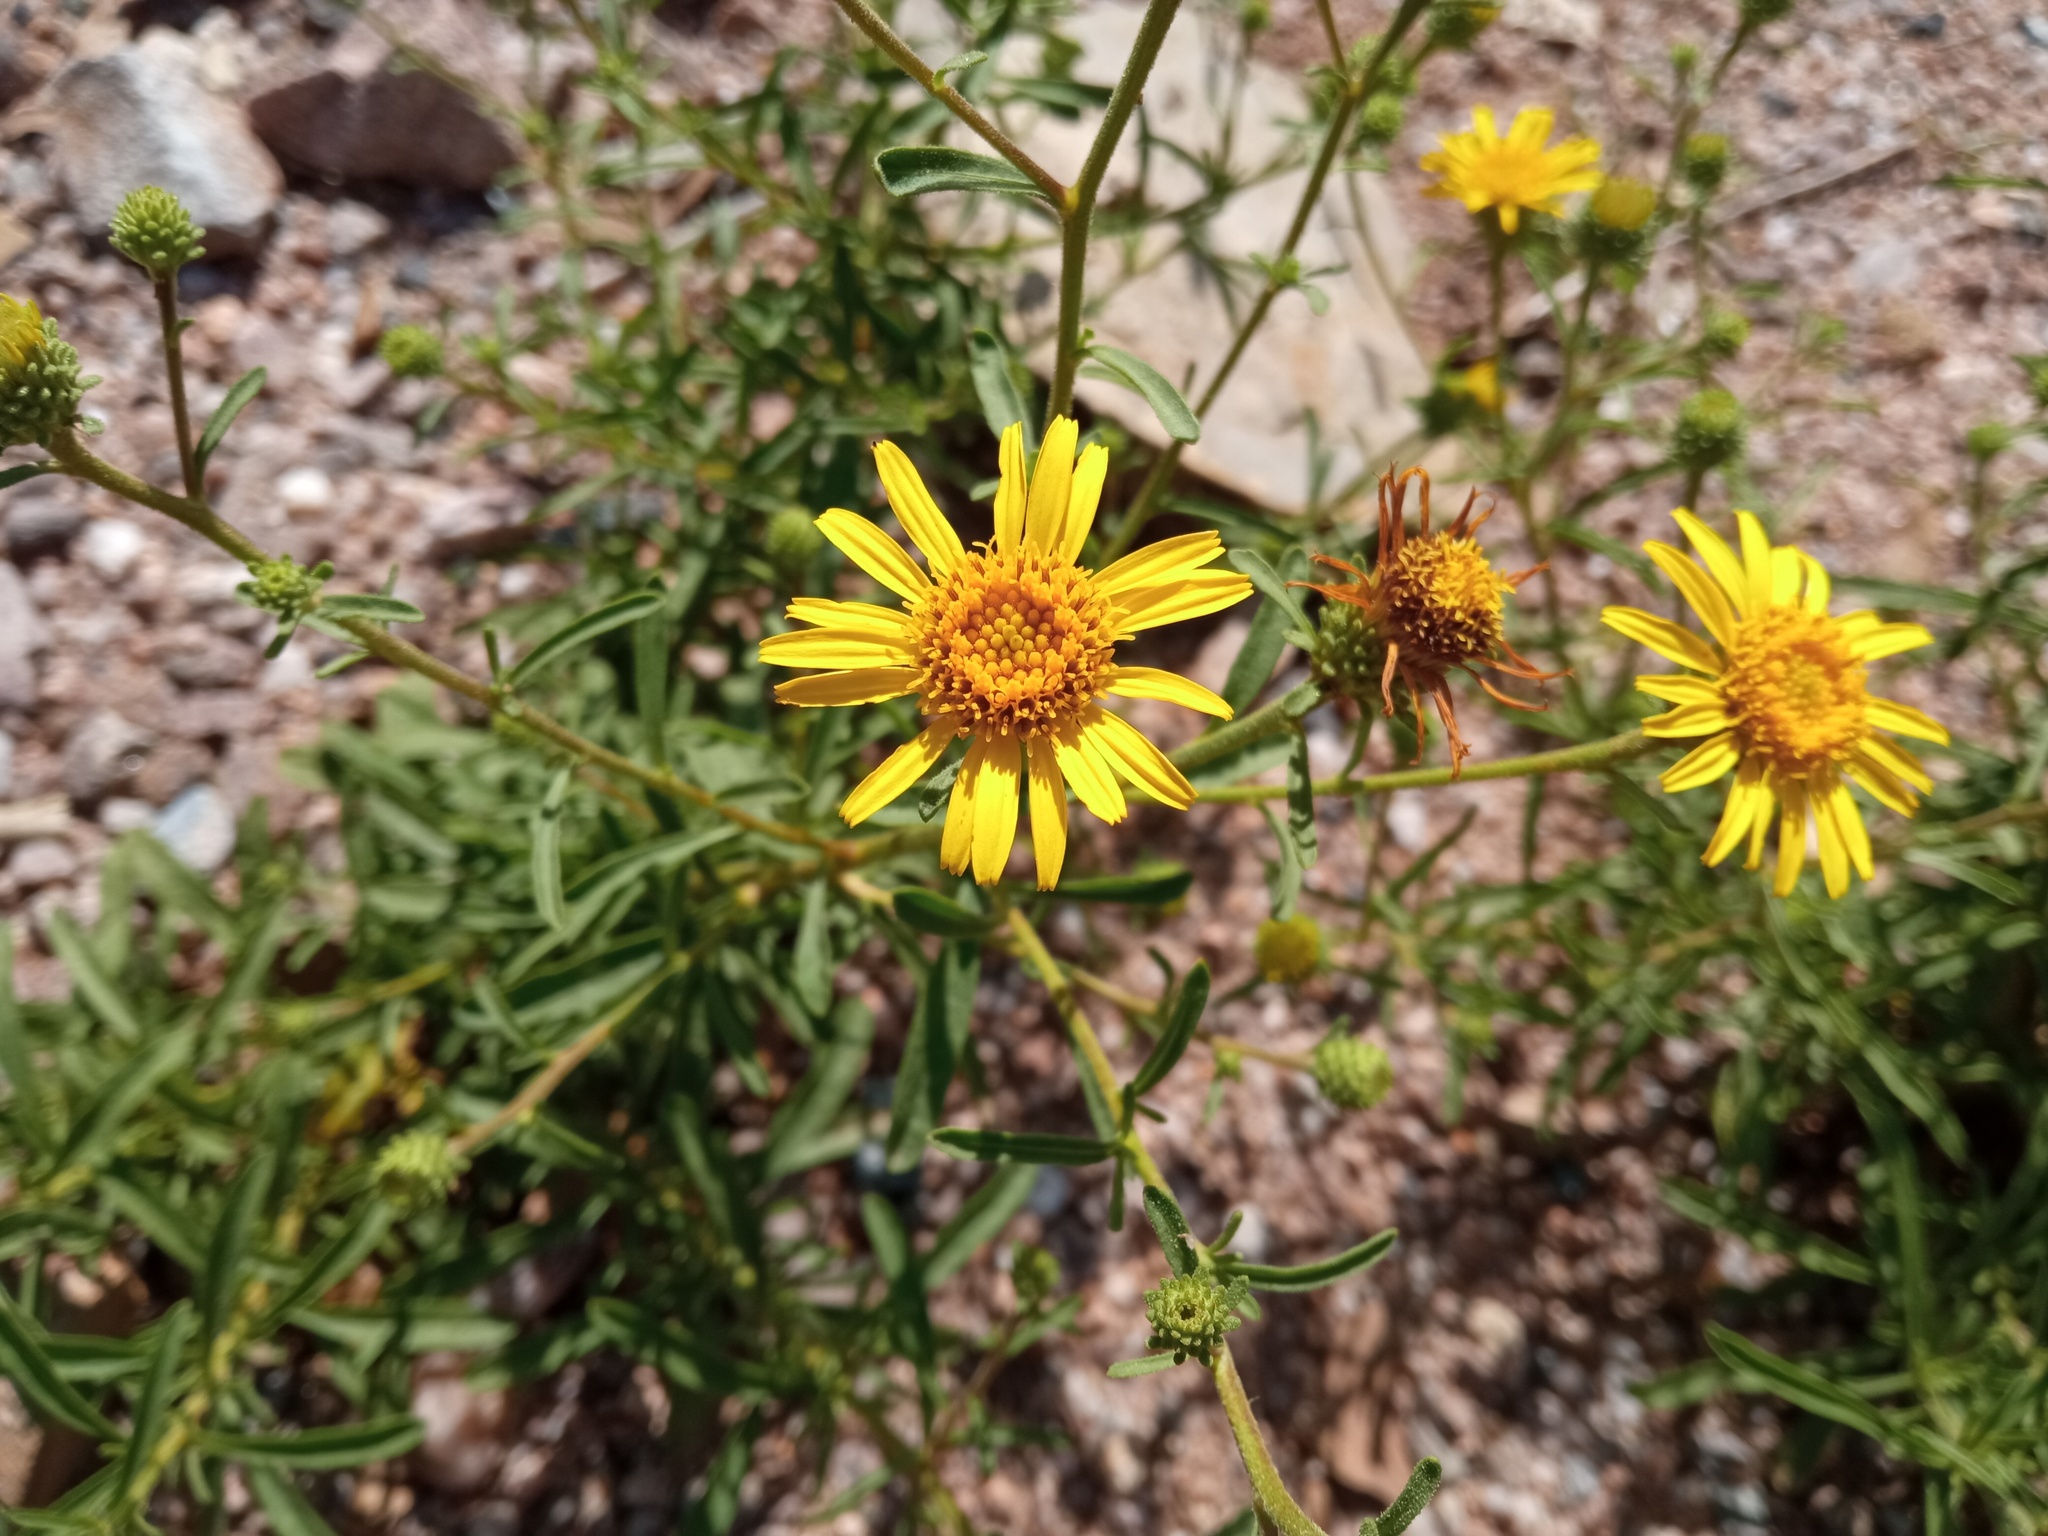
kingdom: Plantae
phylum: Tracheophyta
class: Magnoliopsida
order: Asterales
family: Asteraceae
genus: Jasonia
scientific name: Jasonia tuberosa
